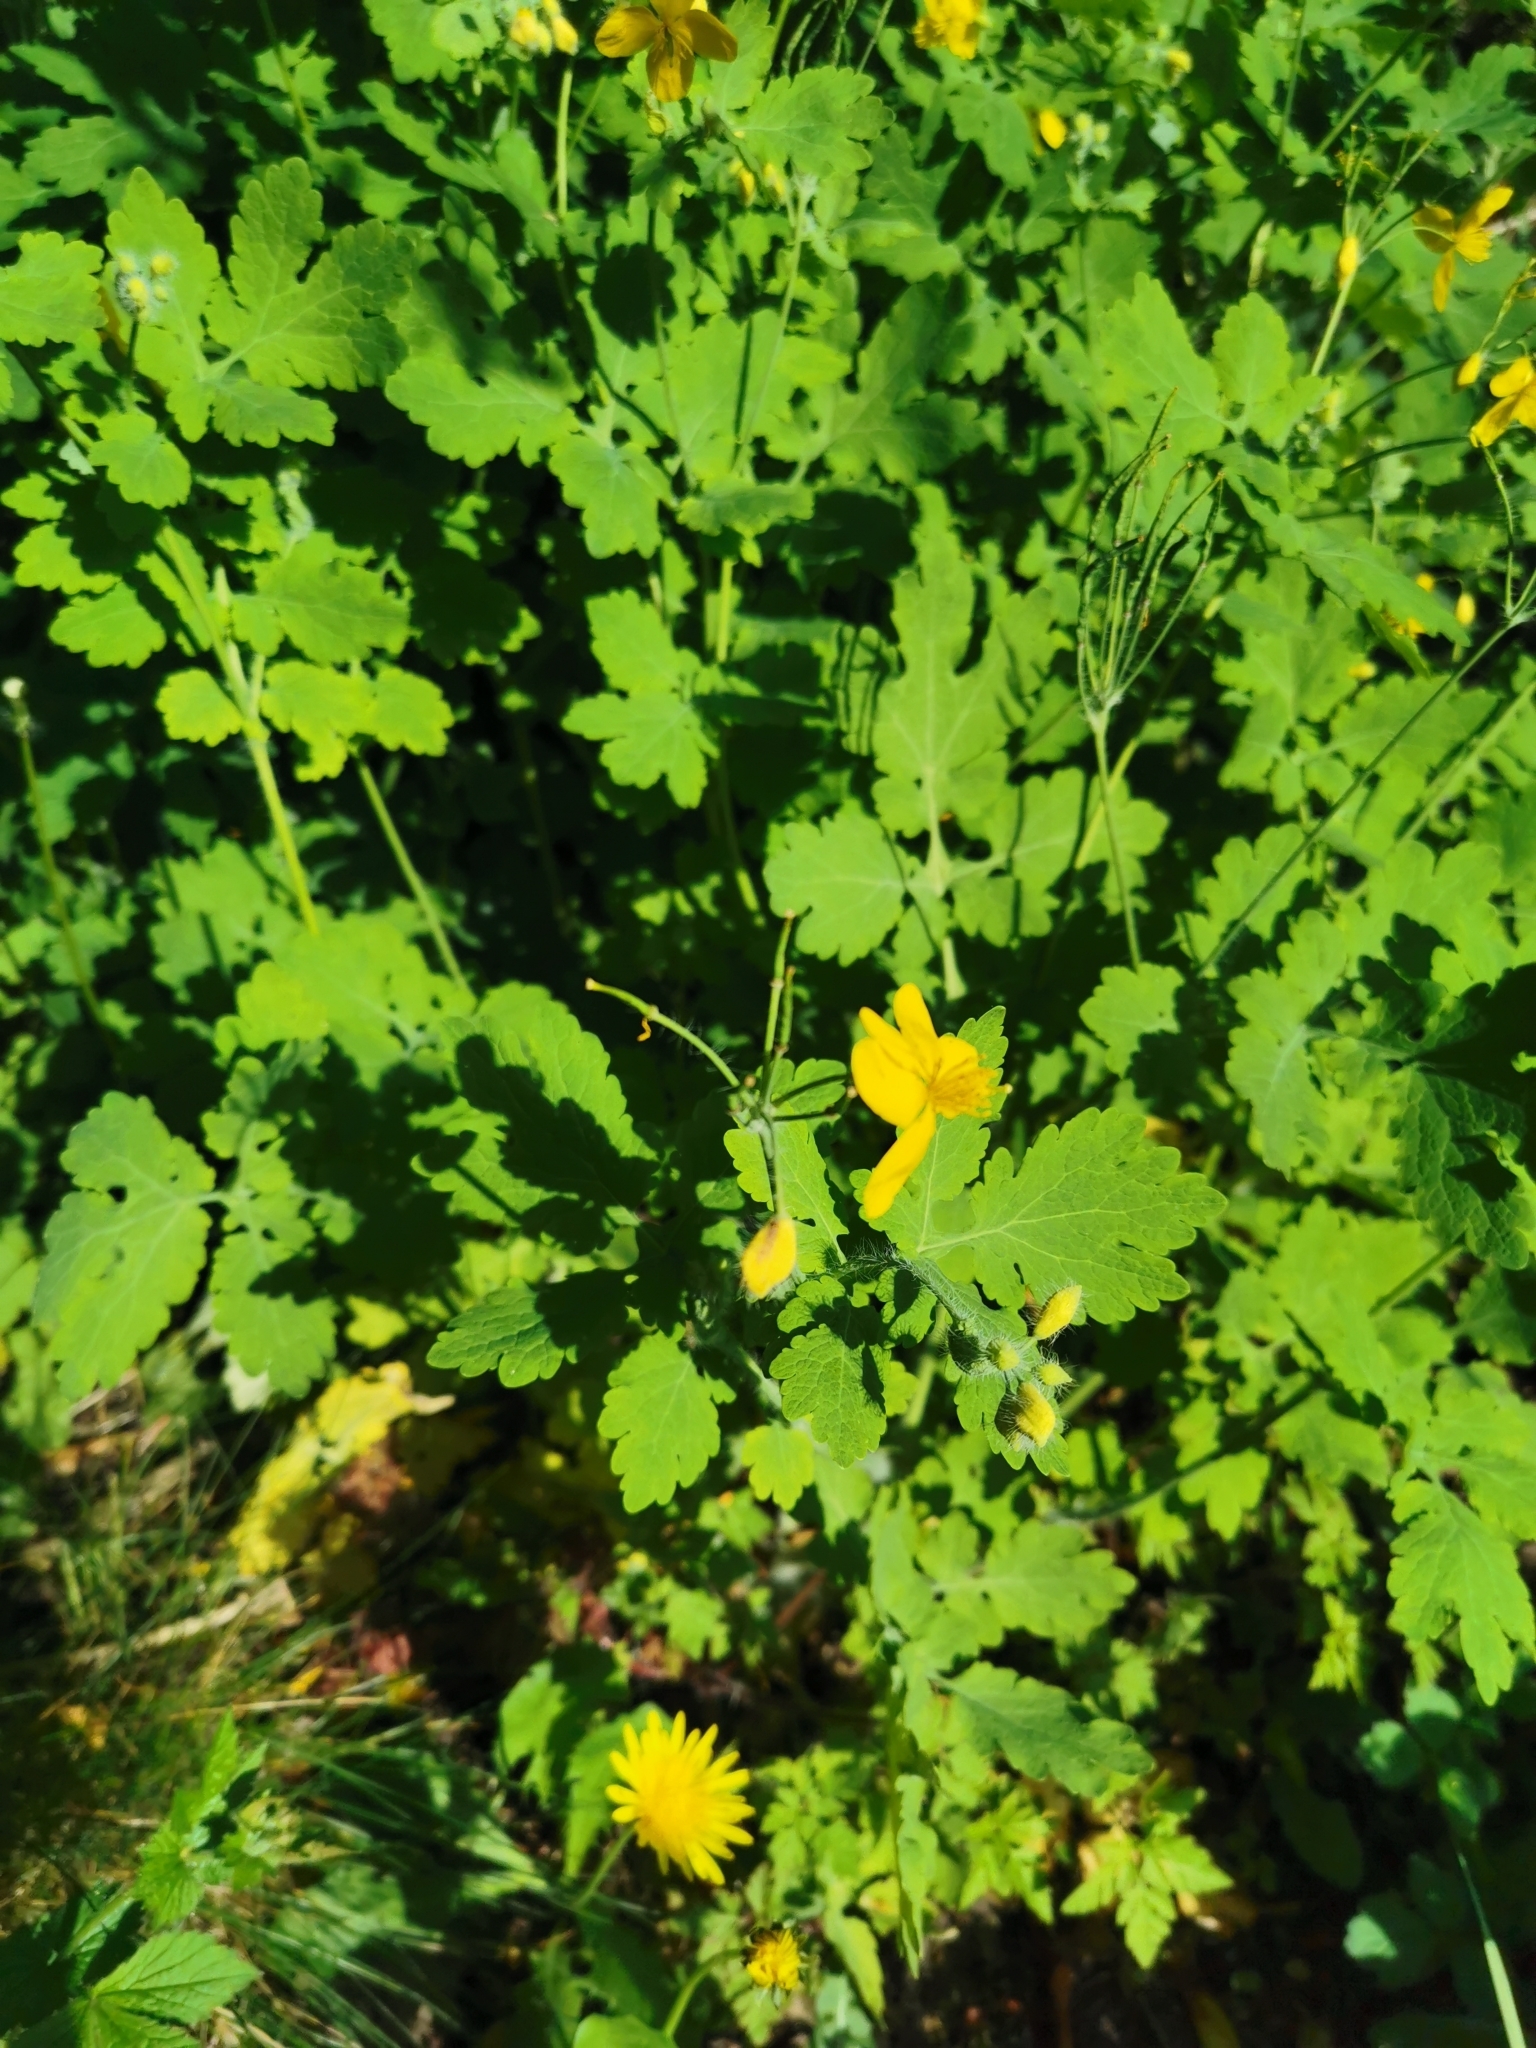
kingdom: Plantae
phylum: Tracheophyta
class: Magnoliopsida
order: Ranunculales
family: Papaveraceae
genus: Chelidonium
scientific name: Chelidonium majus
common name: Greater celandine
